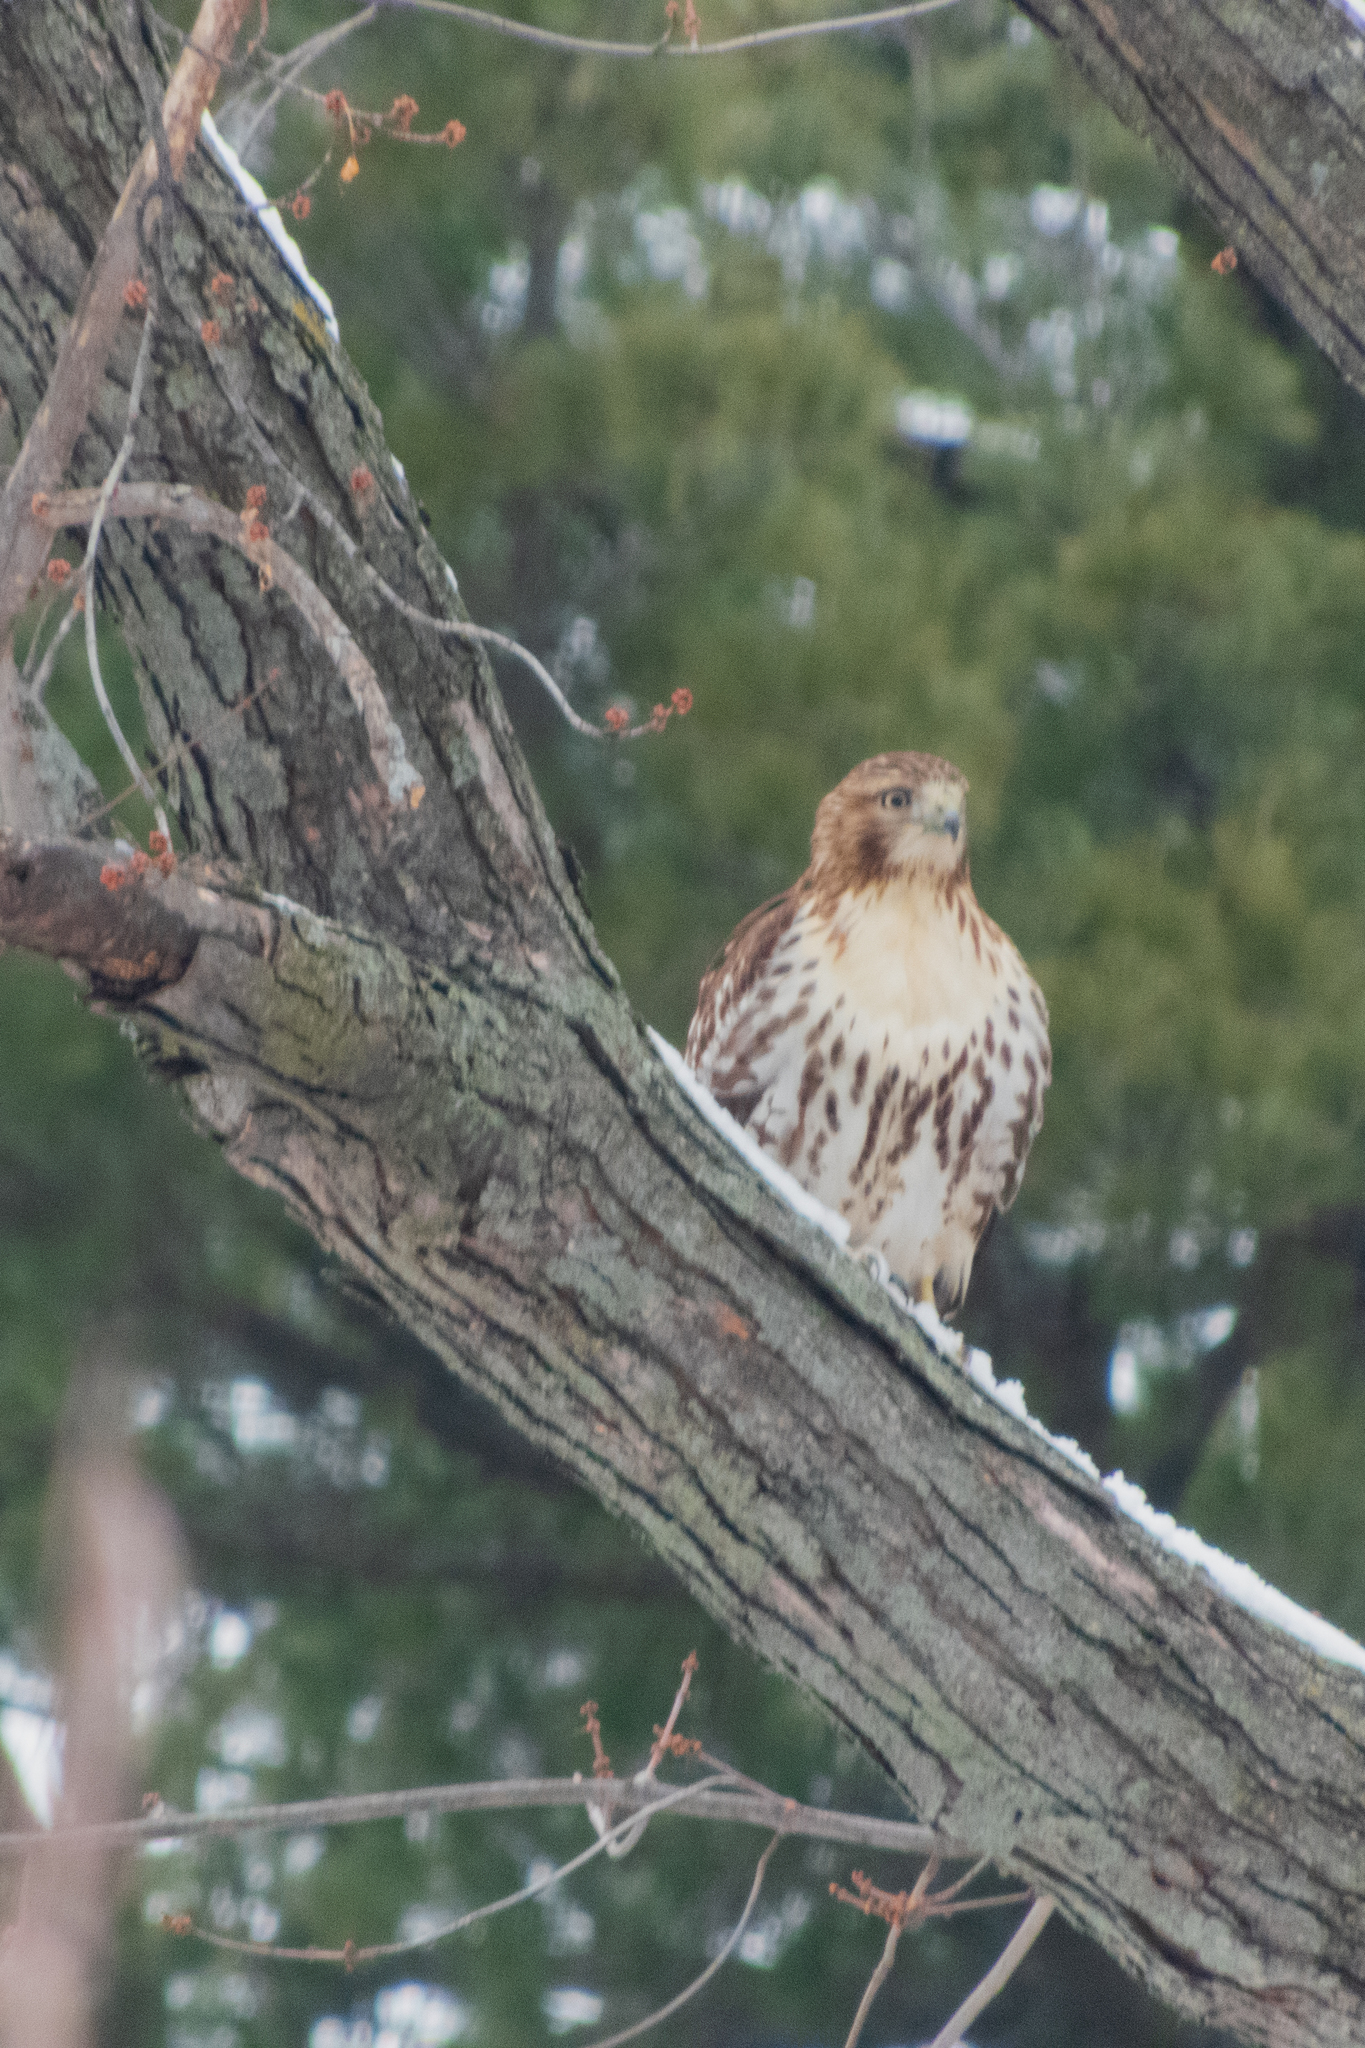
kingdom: Animalia
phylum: Chordata
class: Aves
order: Accipitriformes
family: Accipitridae
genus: Buteo
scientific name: Buteo jamaicensis
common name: Red-tailed hawk
